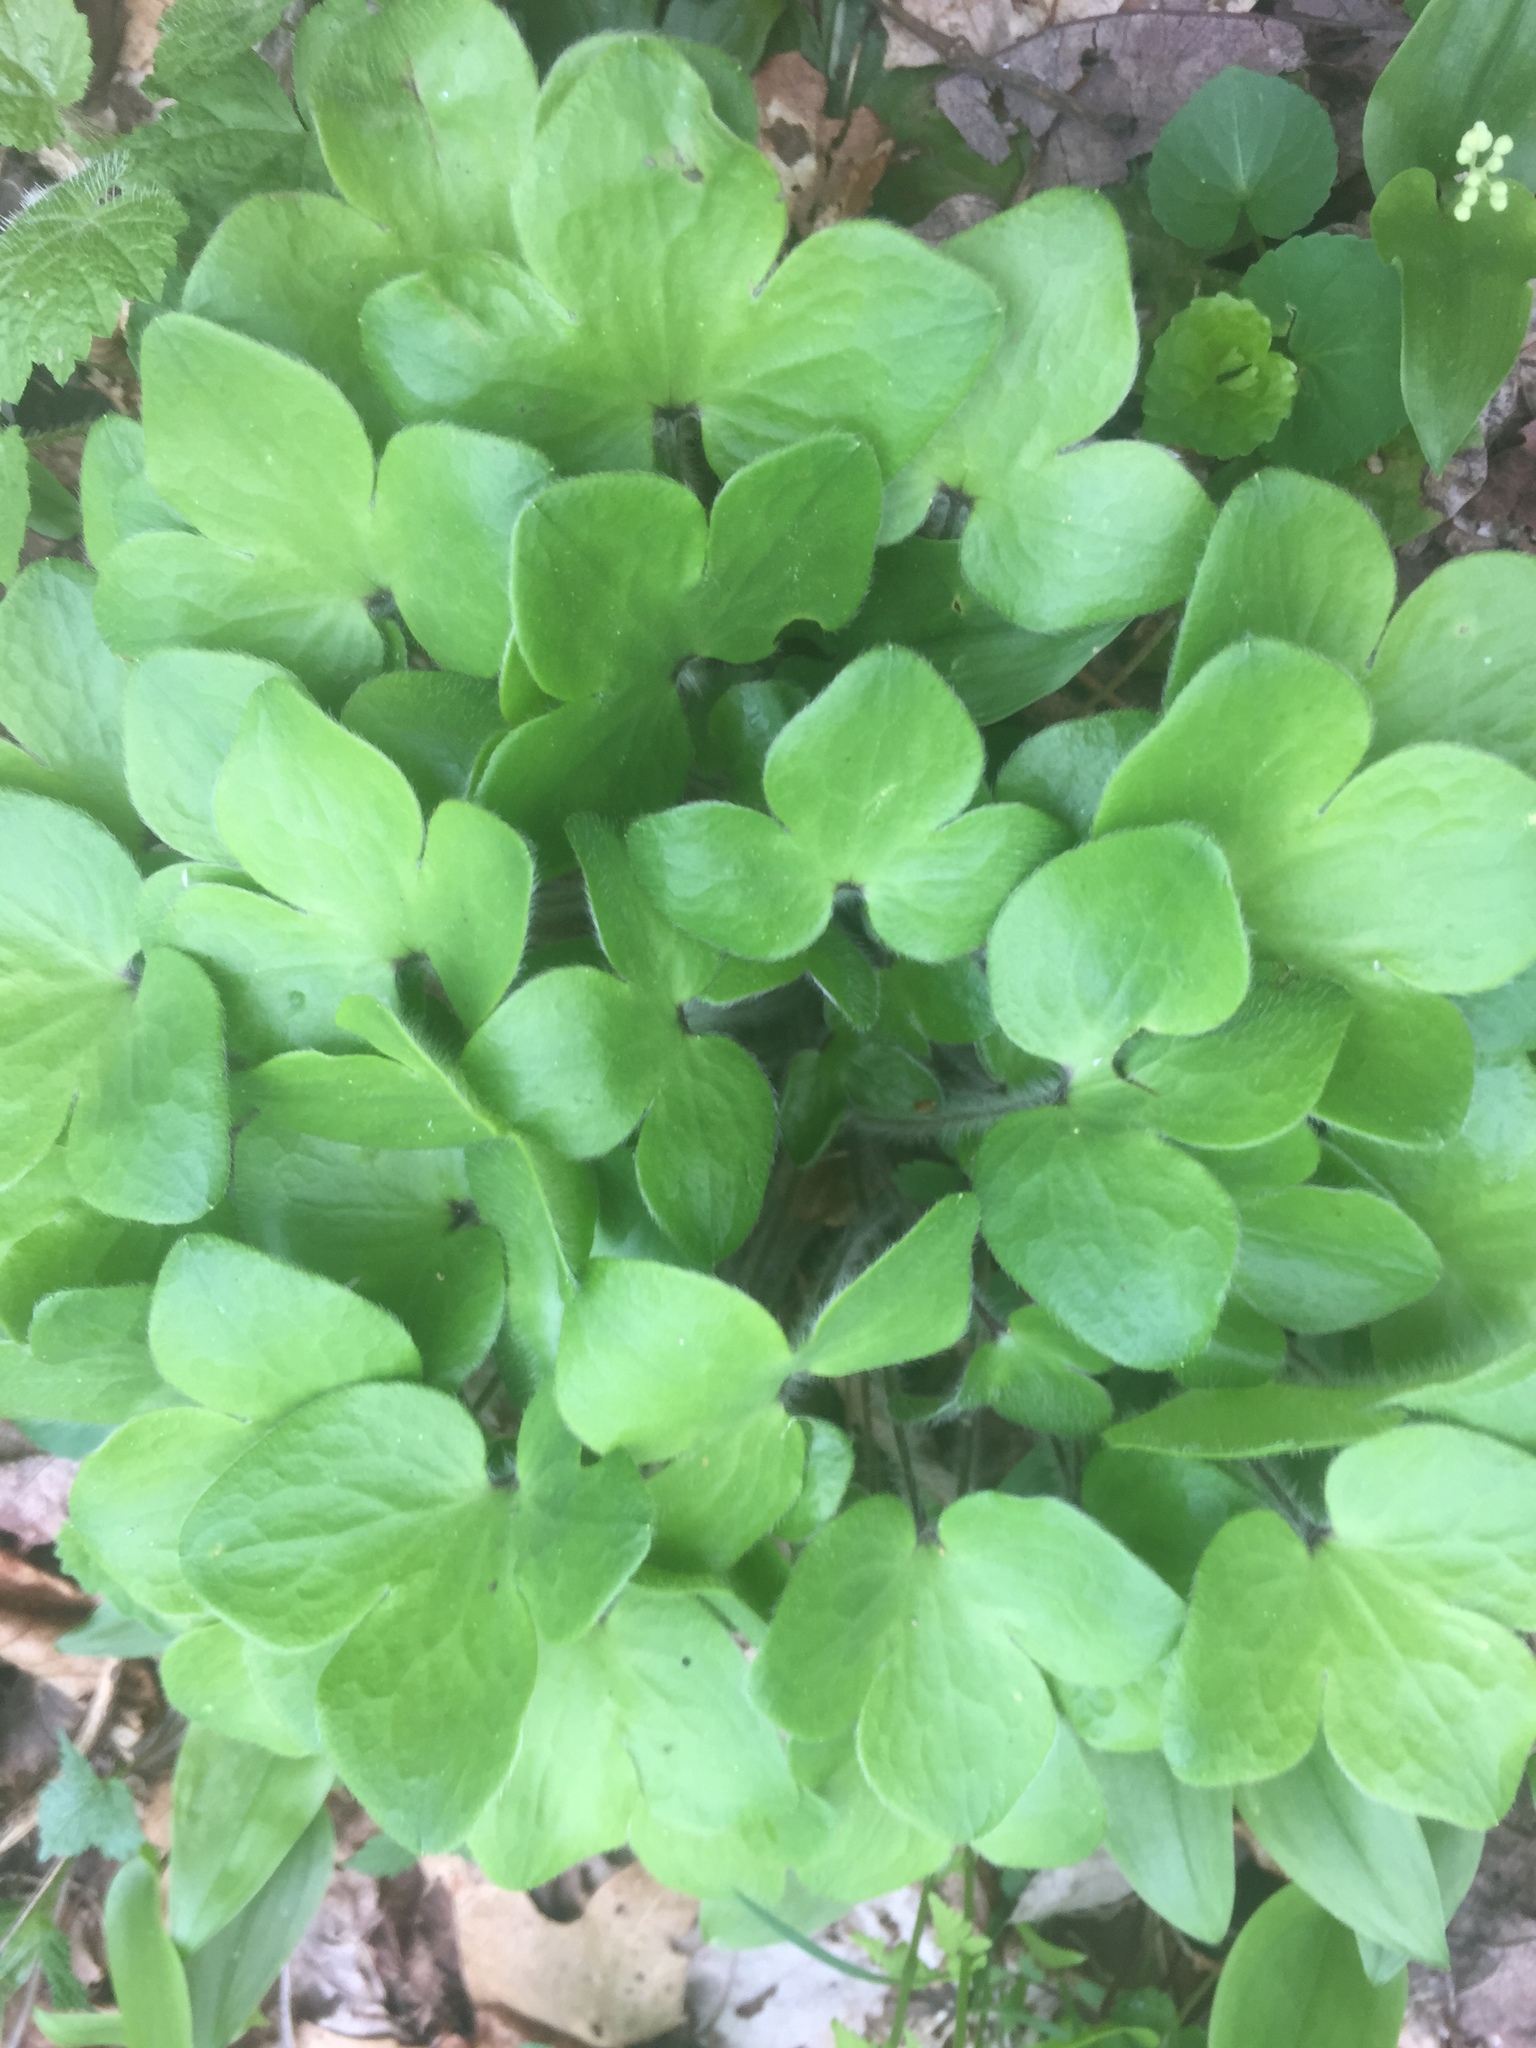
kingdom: Plantae
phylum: Tracheophyta
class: Magnoliopsida
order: Ranunculales
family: Ranunculaceae
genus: Hepatica
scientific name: Hepatica americana
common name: American hepatica
